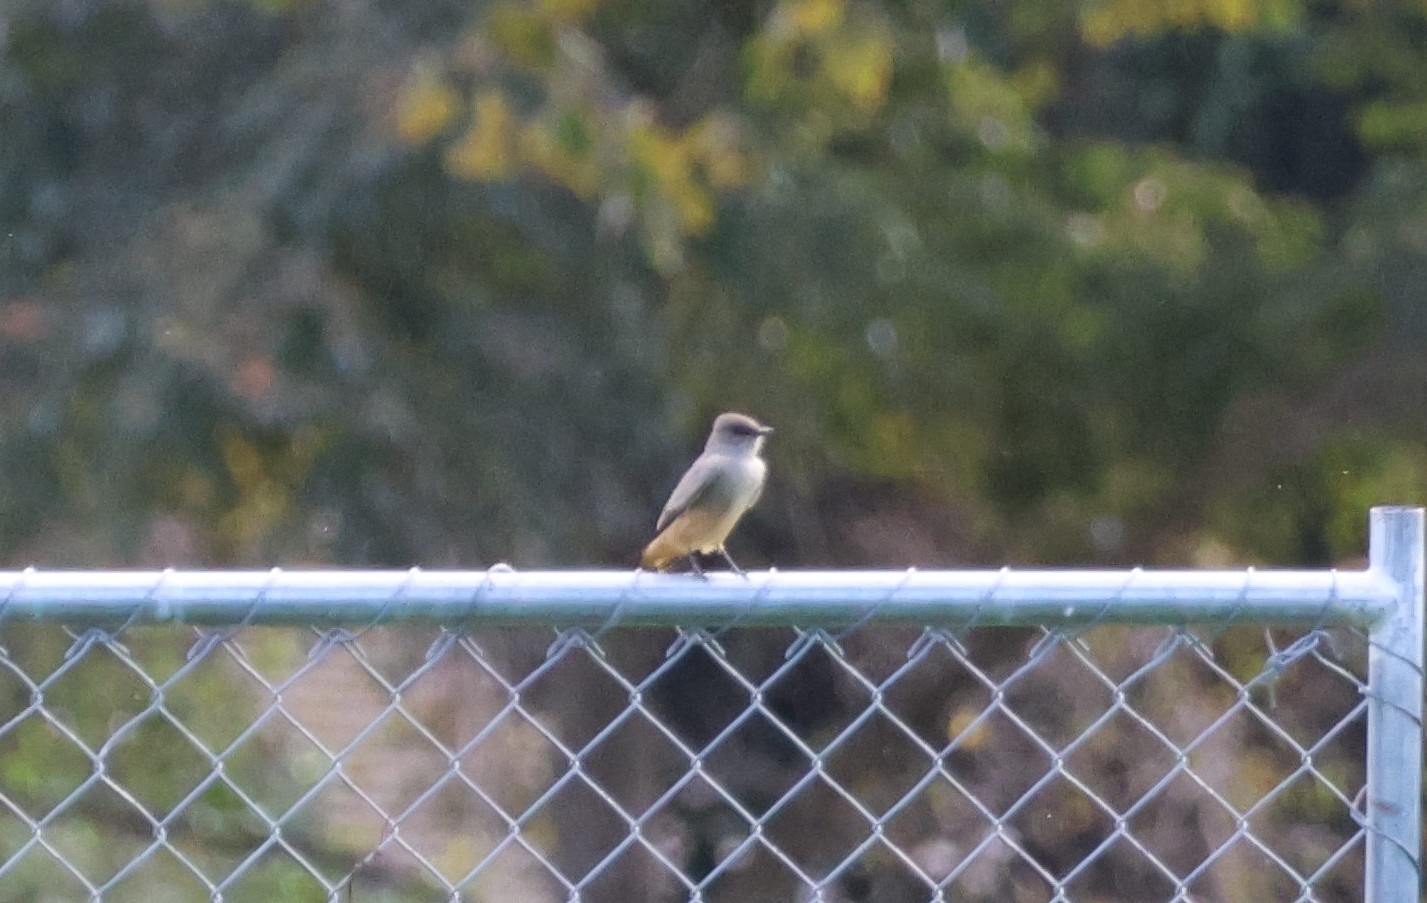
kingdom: Animalia
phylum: Chordata
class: Aves
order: Passeriformes
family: Tyrannidae
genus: Sayornis
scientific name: Sayornis saya
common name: Say's phoebe
